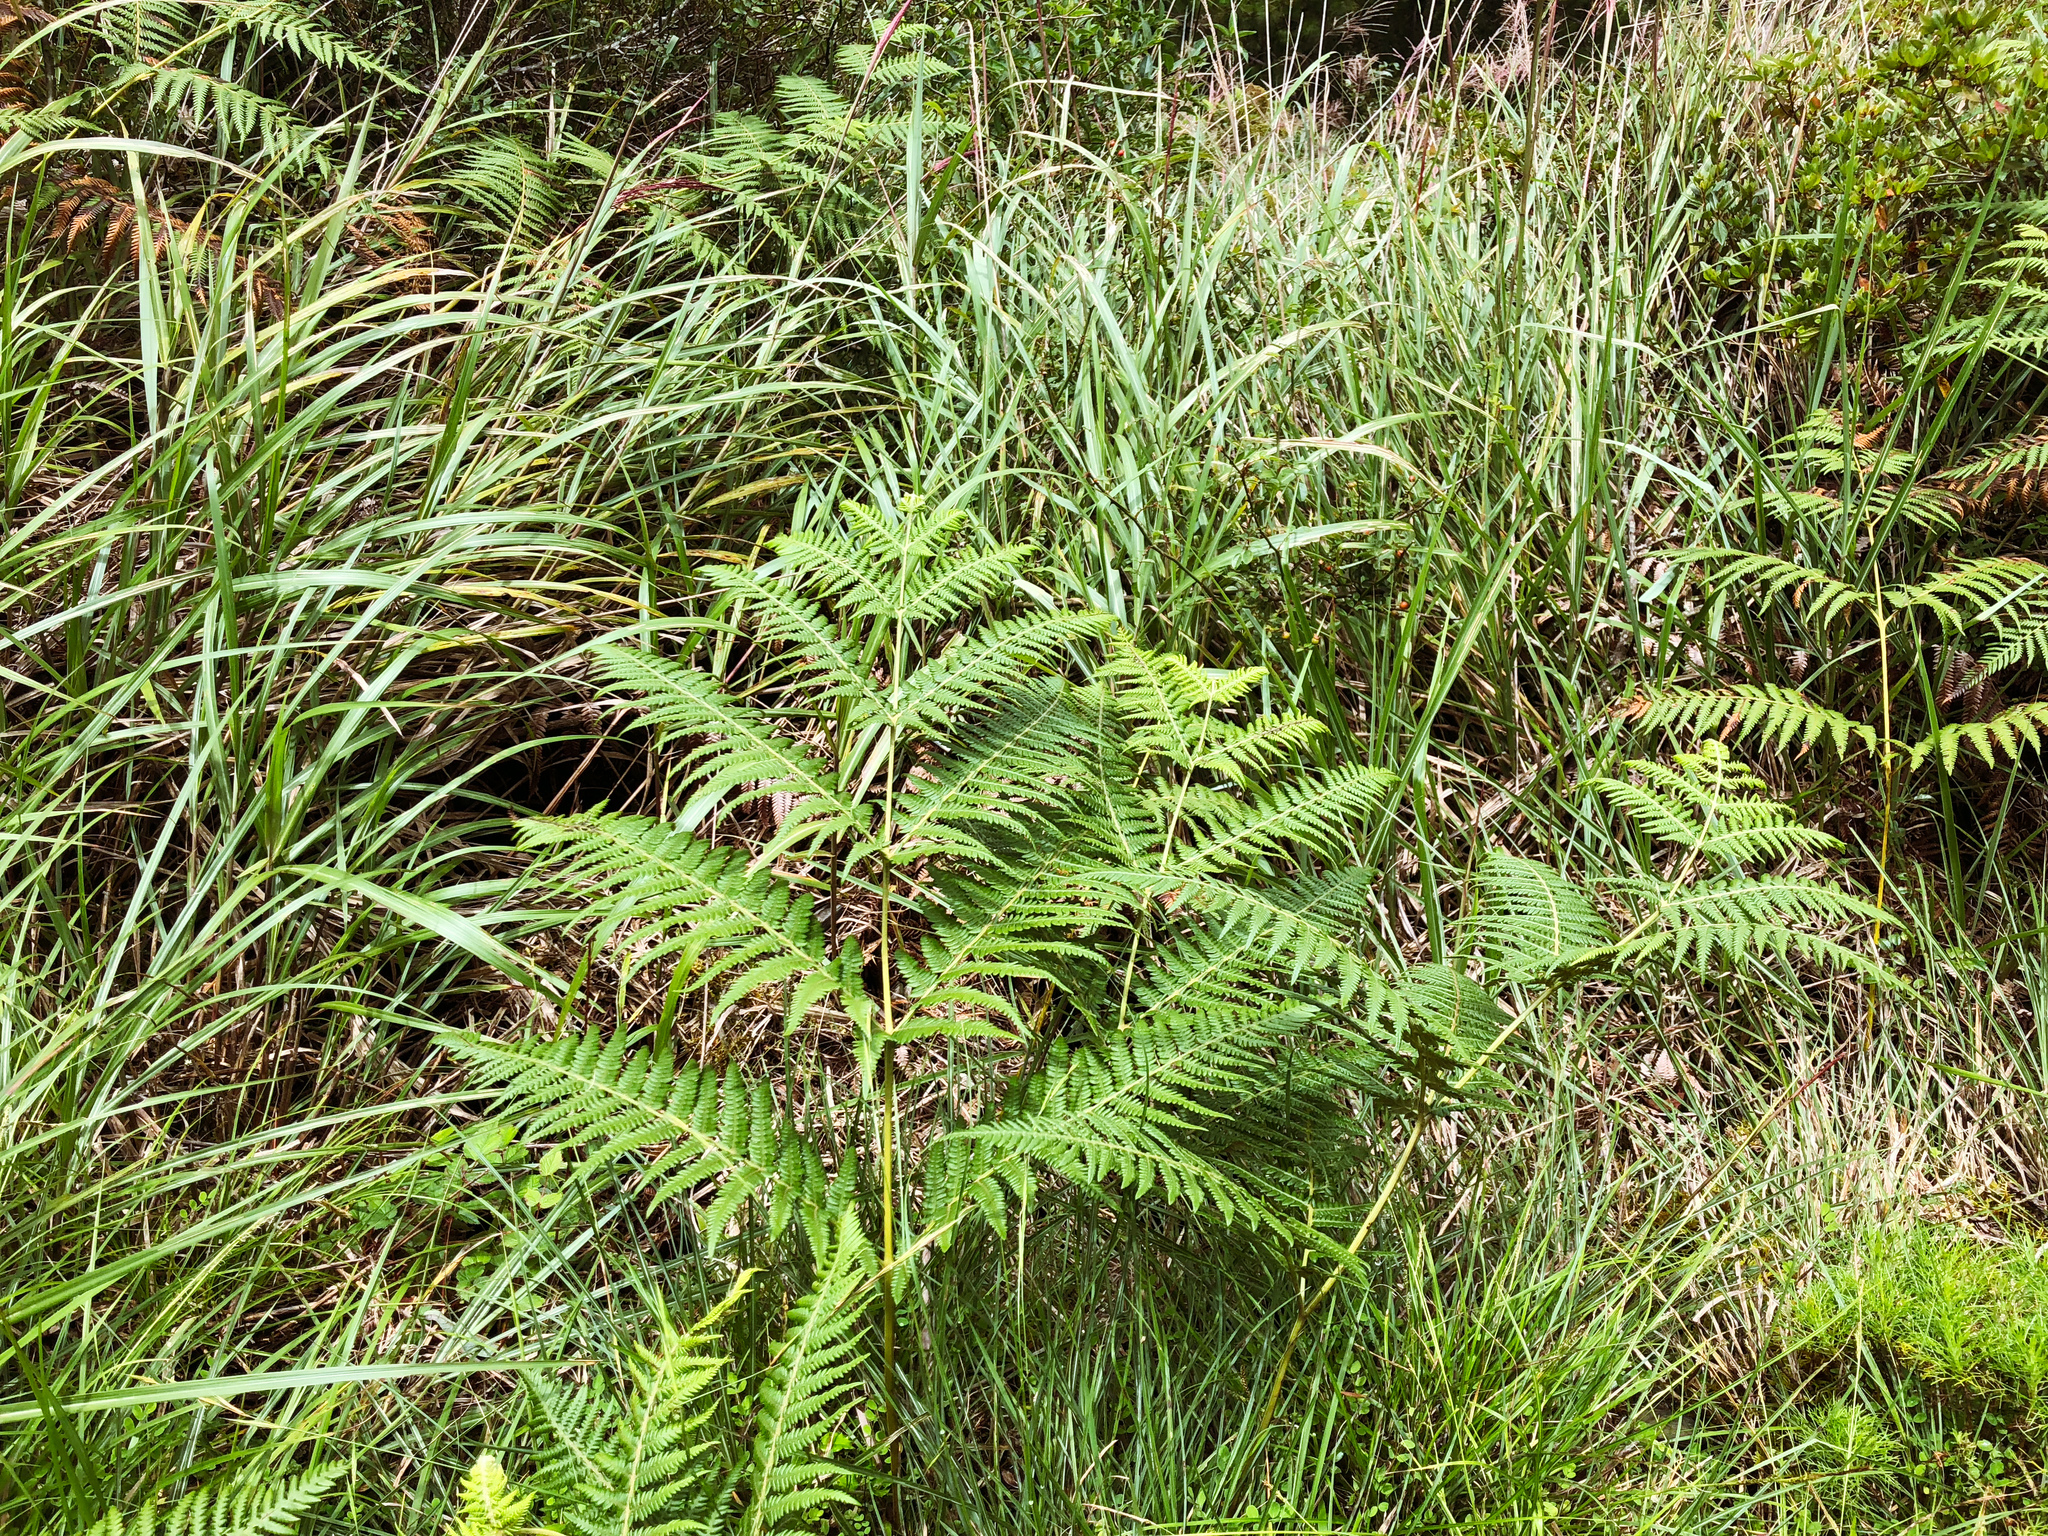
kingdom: Plantae
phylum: Tracheophyta
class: Polypodiopsida
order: Polypodiales
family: Dennstaedtiaceae
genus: Pteridium
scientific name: Pteridium aquilinum
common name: Bracken
